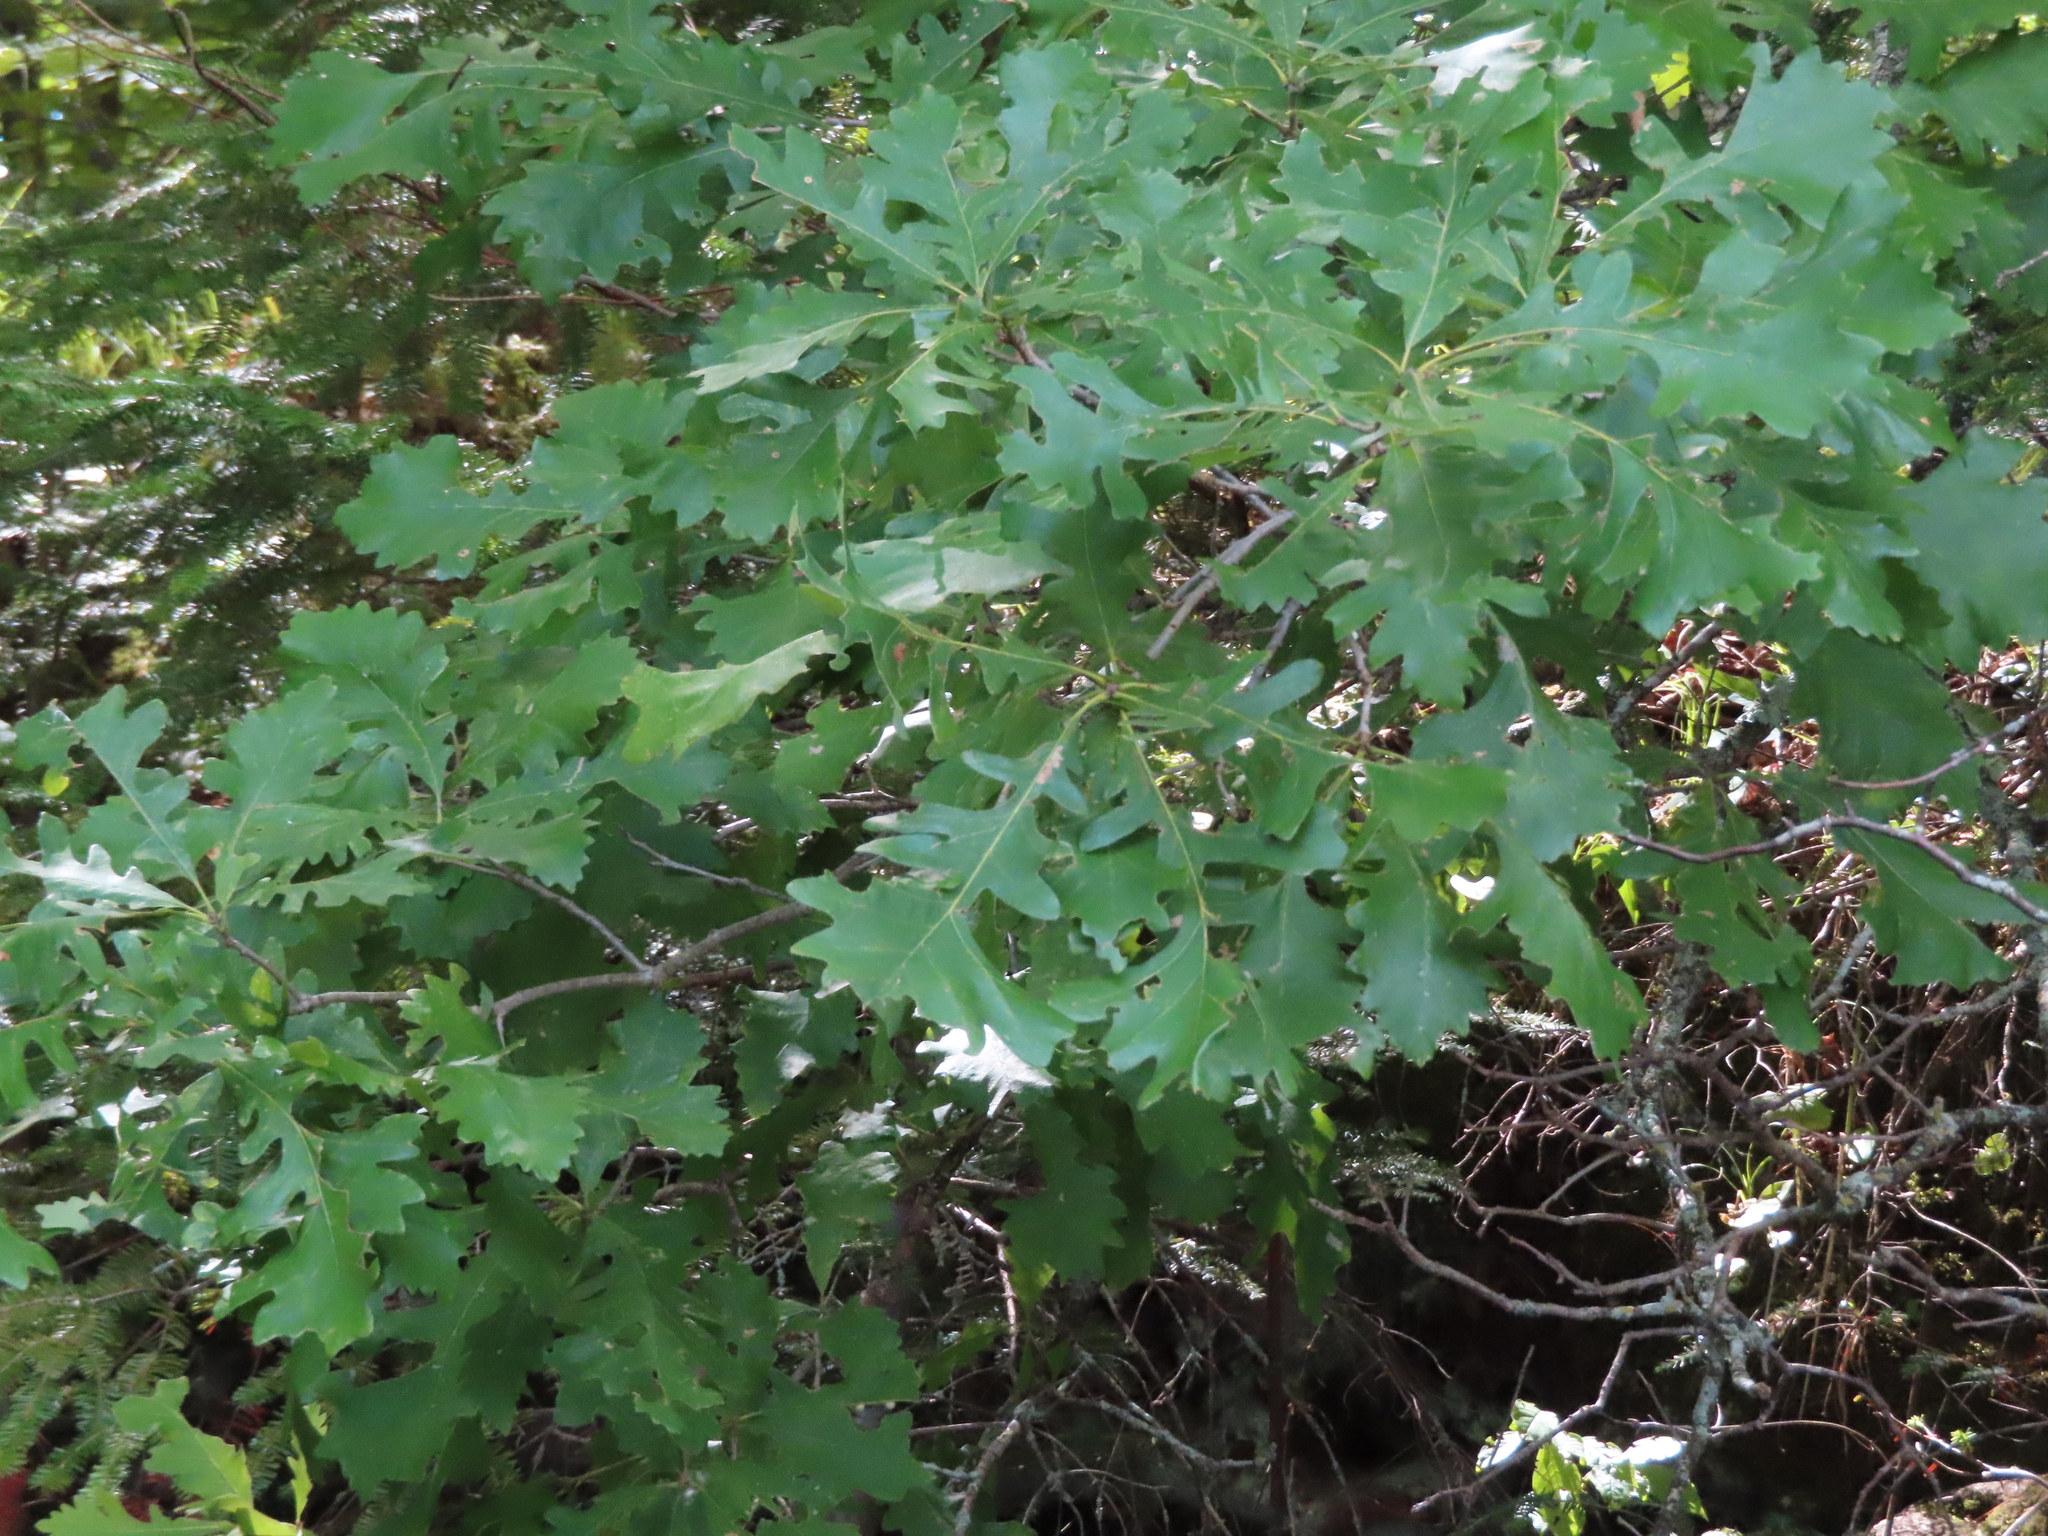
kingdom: Plantae
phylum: Tracheophyta
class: Magnoliopsida
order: Fagales
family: Fagaceae
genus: Quercus
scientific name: Quercus macrocarpa
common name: Bur oak
